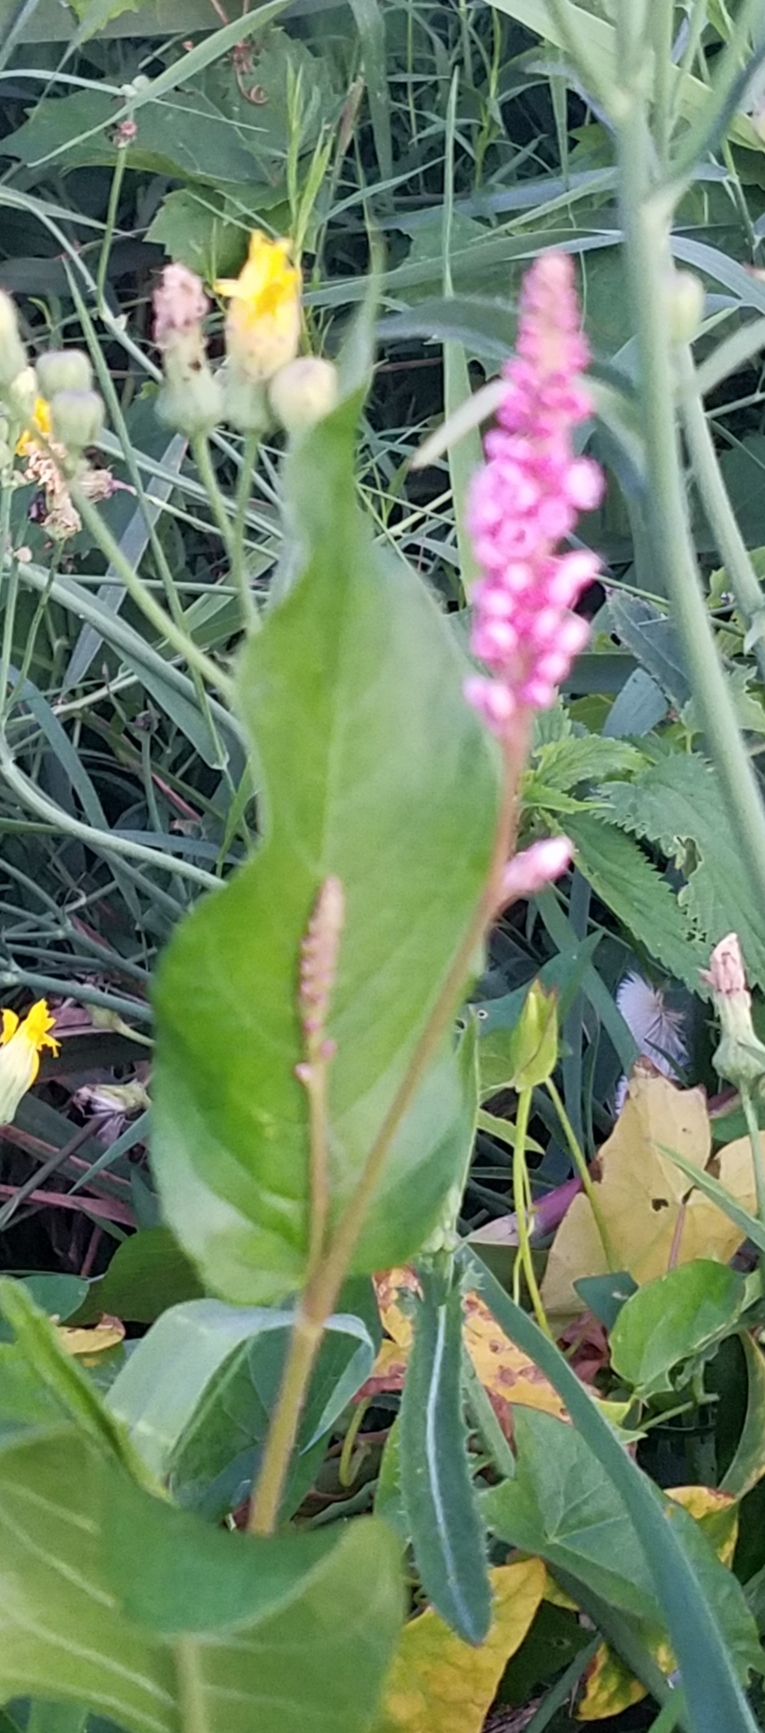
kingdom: Plantae
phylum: Tracheophyta
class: Magnoliopsida
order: Caryophyllales
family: Polygonaceae
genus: Persicaria
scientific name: Persicaria amphibia
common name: Amphibious bistort
